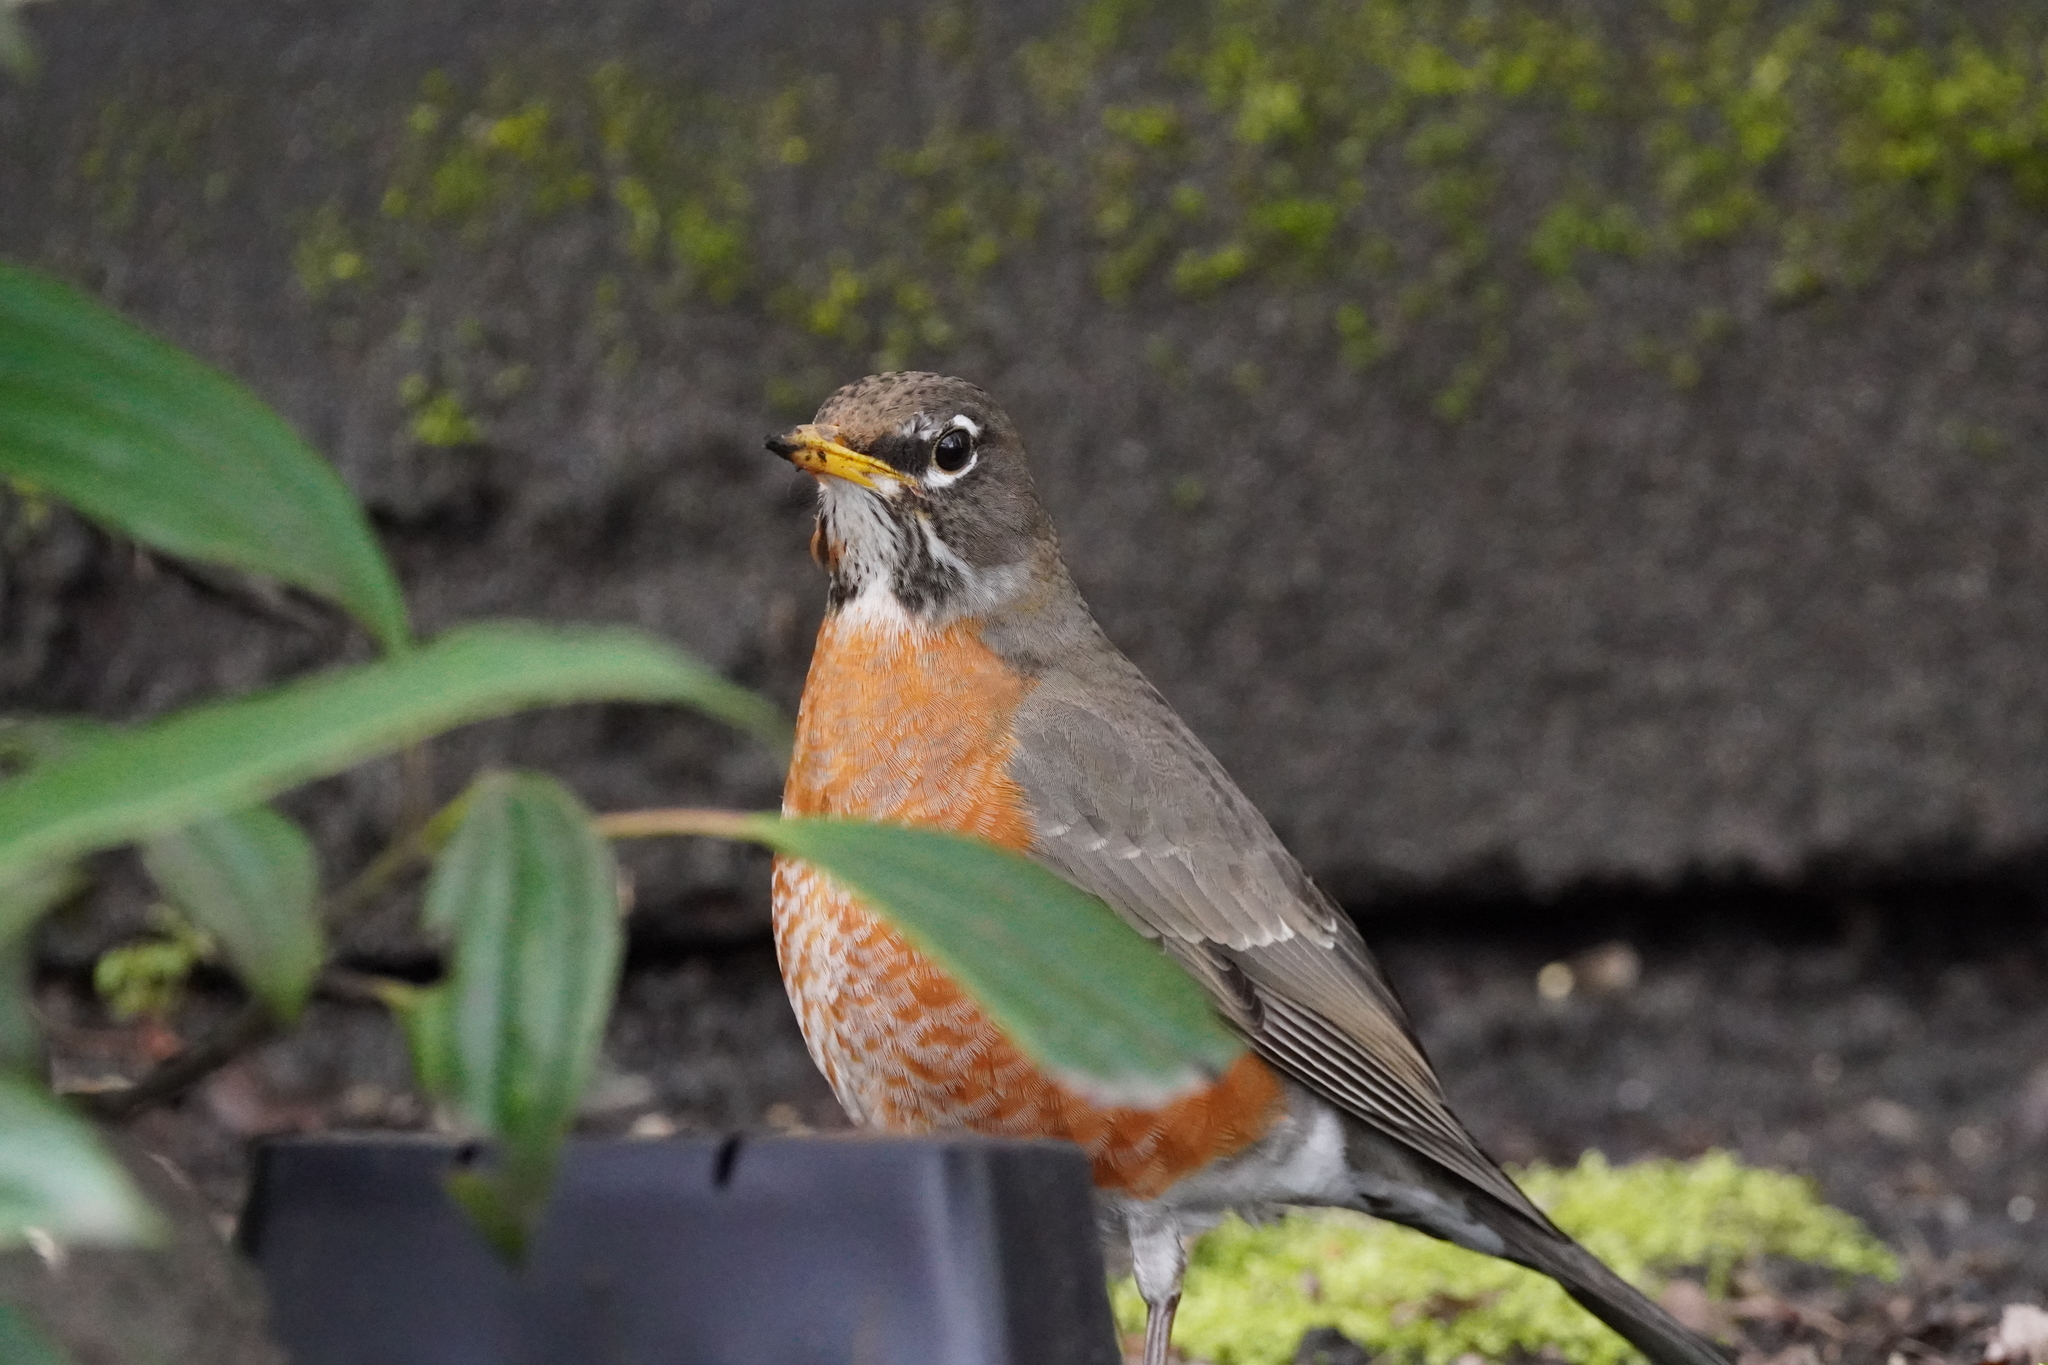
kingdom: Animalia
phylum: Chordata
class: Aves
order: Passeriformes
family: Turdidae
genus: Turdus
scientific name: Turdus migratorius
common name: American robin
